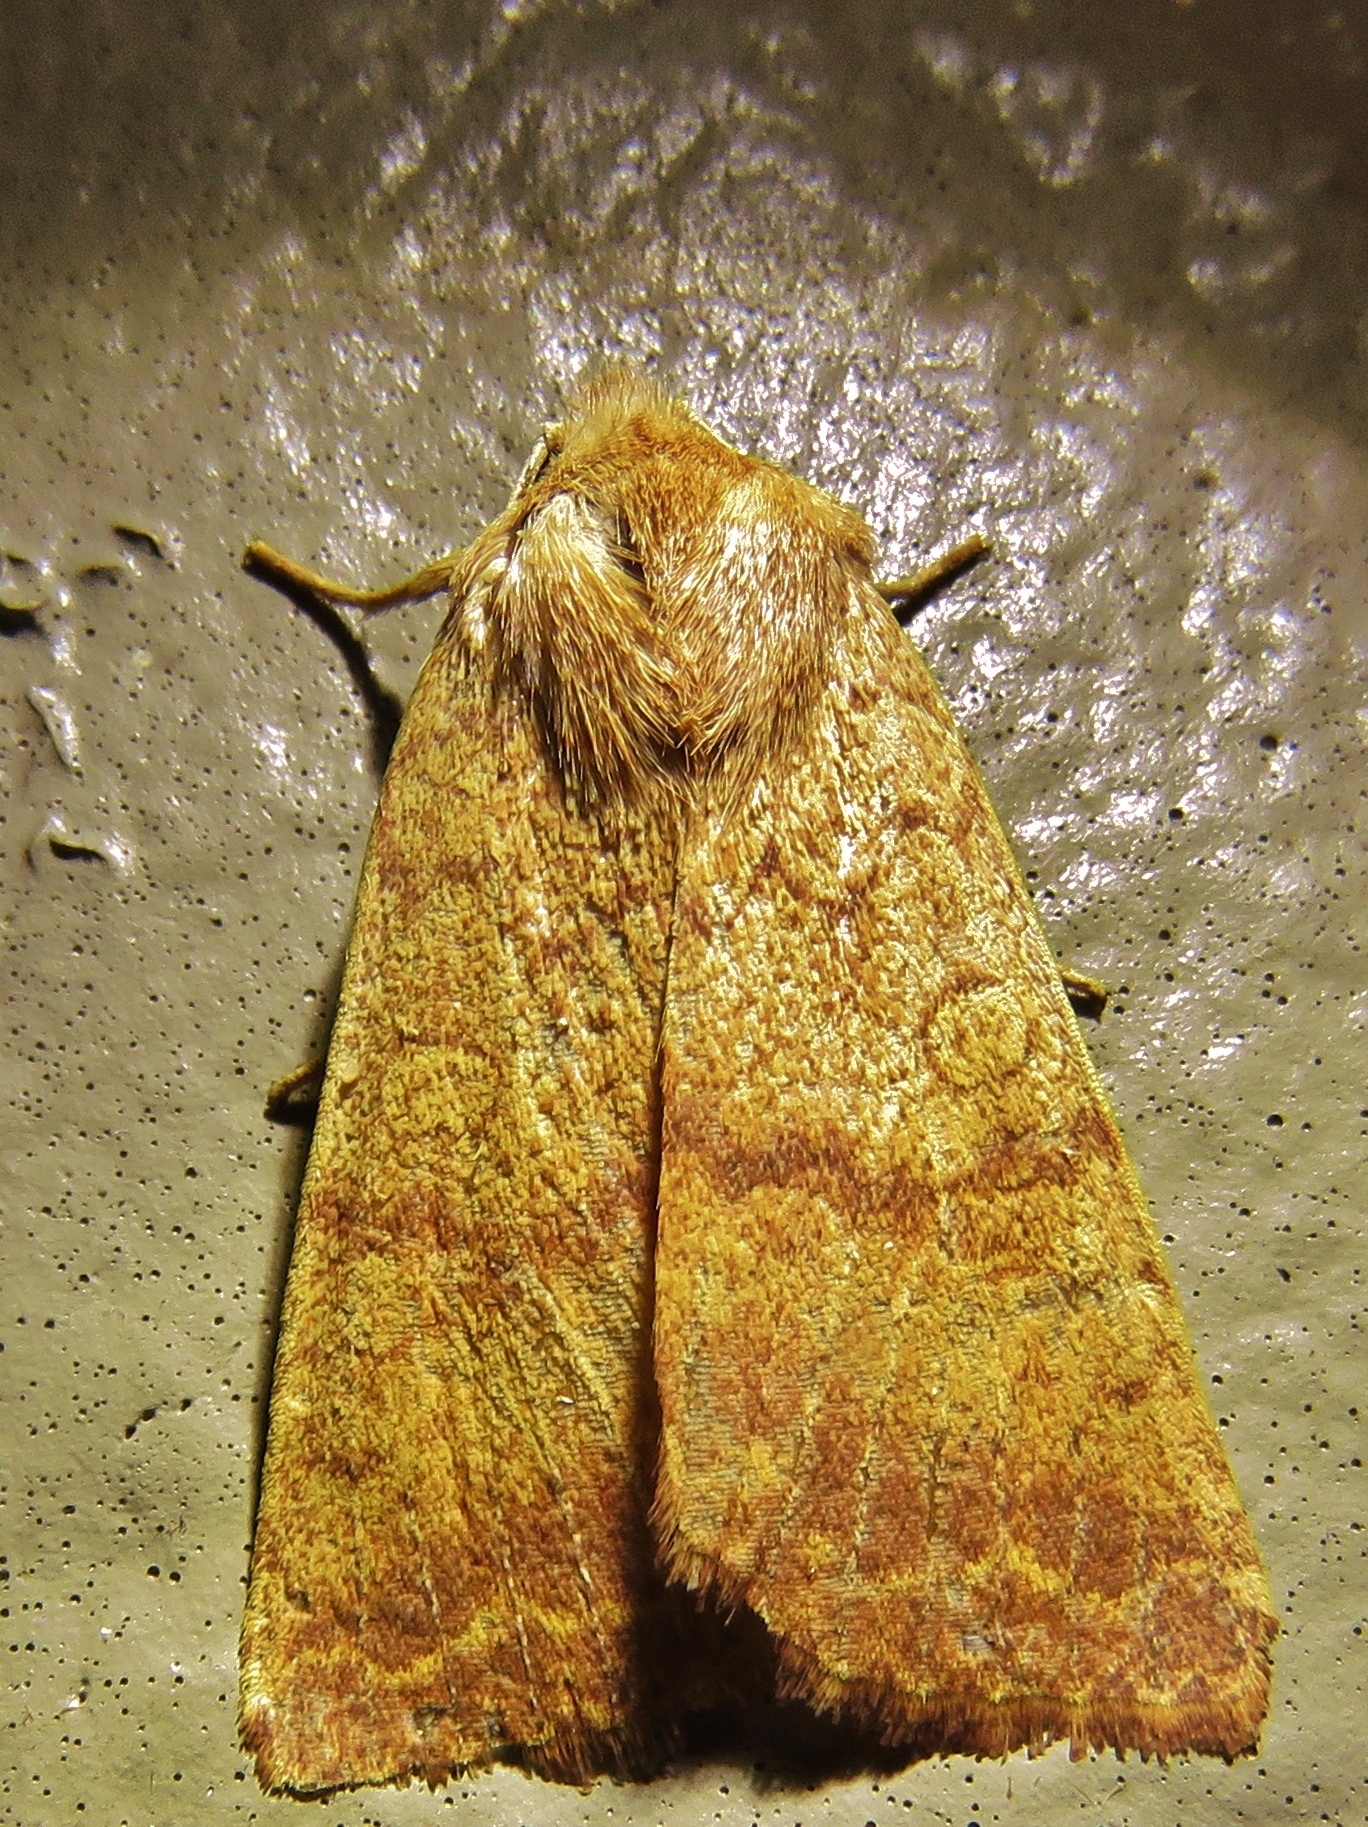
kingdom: Animalia
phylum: Arthropoda
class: Insecta
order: Lepidoptera
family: Noctuidae
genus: Agrochola
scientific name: Agrochola bicolorago
